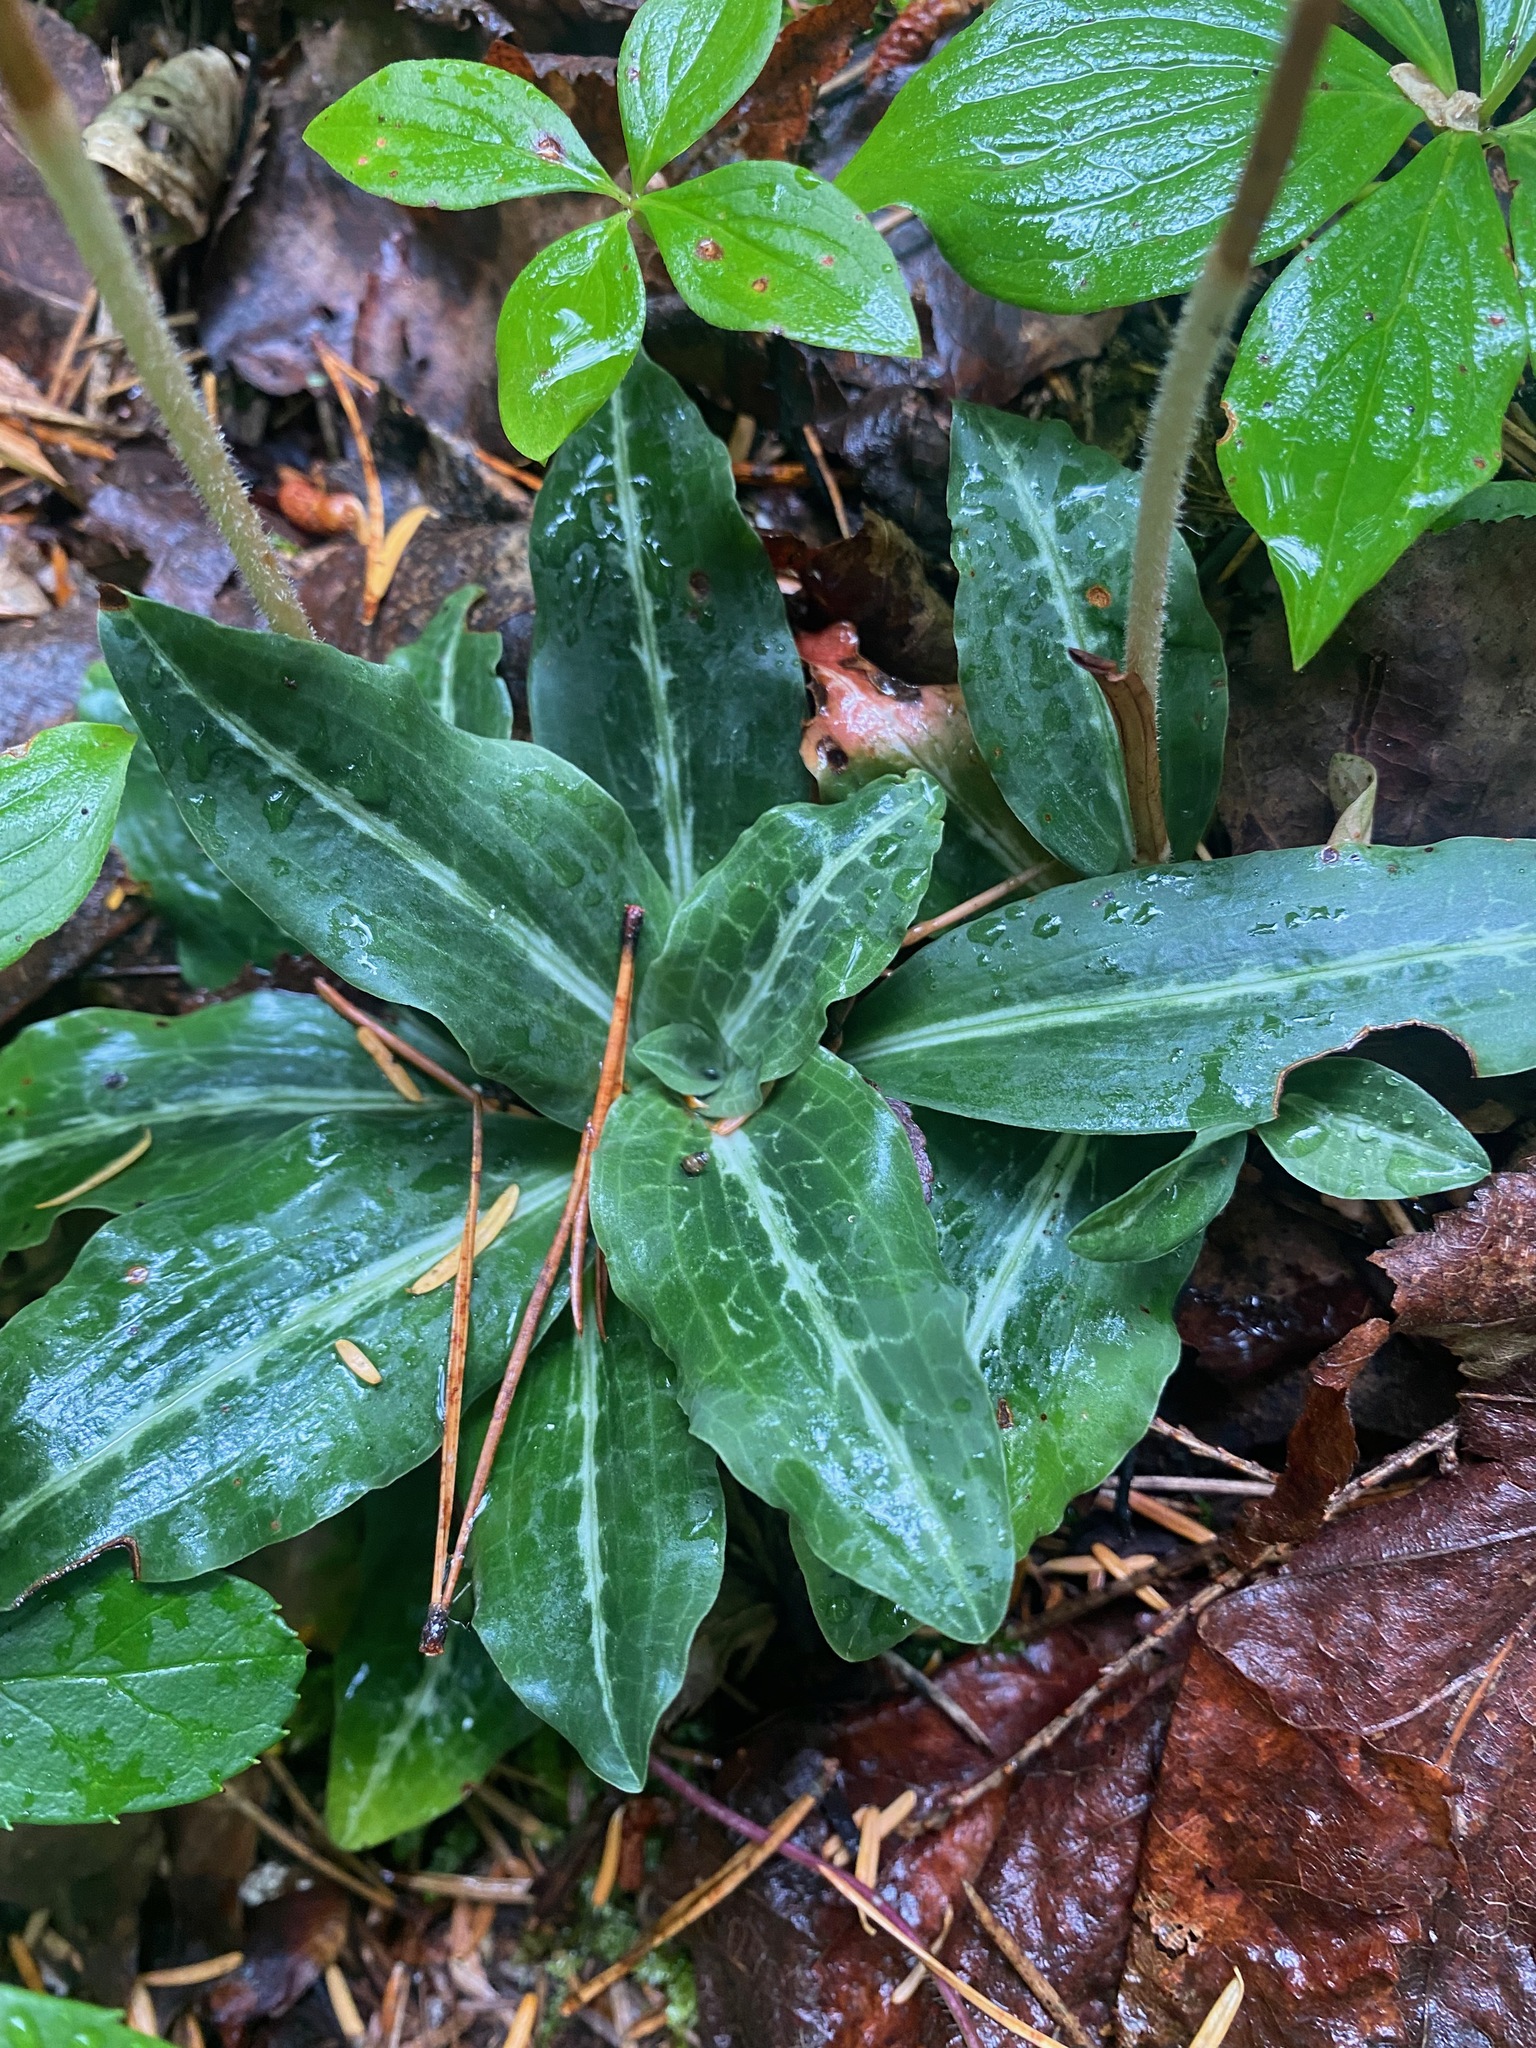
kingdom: Plantae
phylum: Tracheophyta
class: Liliopsida
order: Asparagales
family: Orchidaceae
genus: Goodyera
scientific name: Goodyera oblongifolia
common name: Giant rattlesnake-plantain
